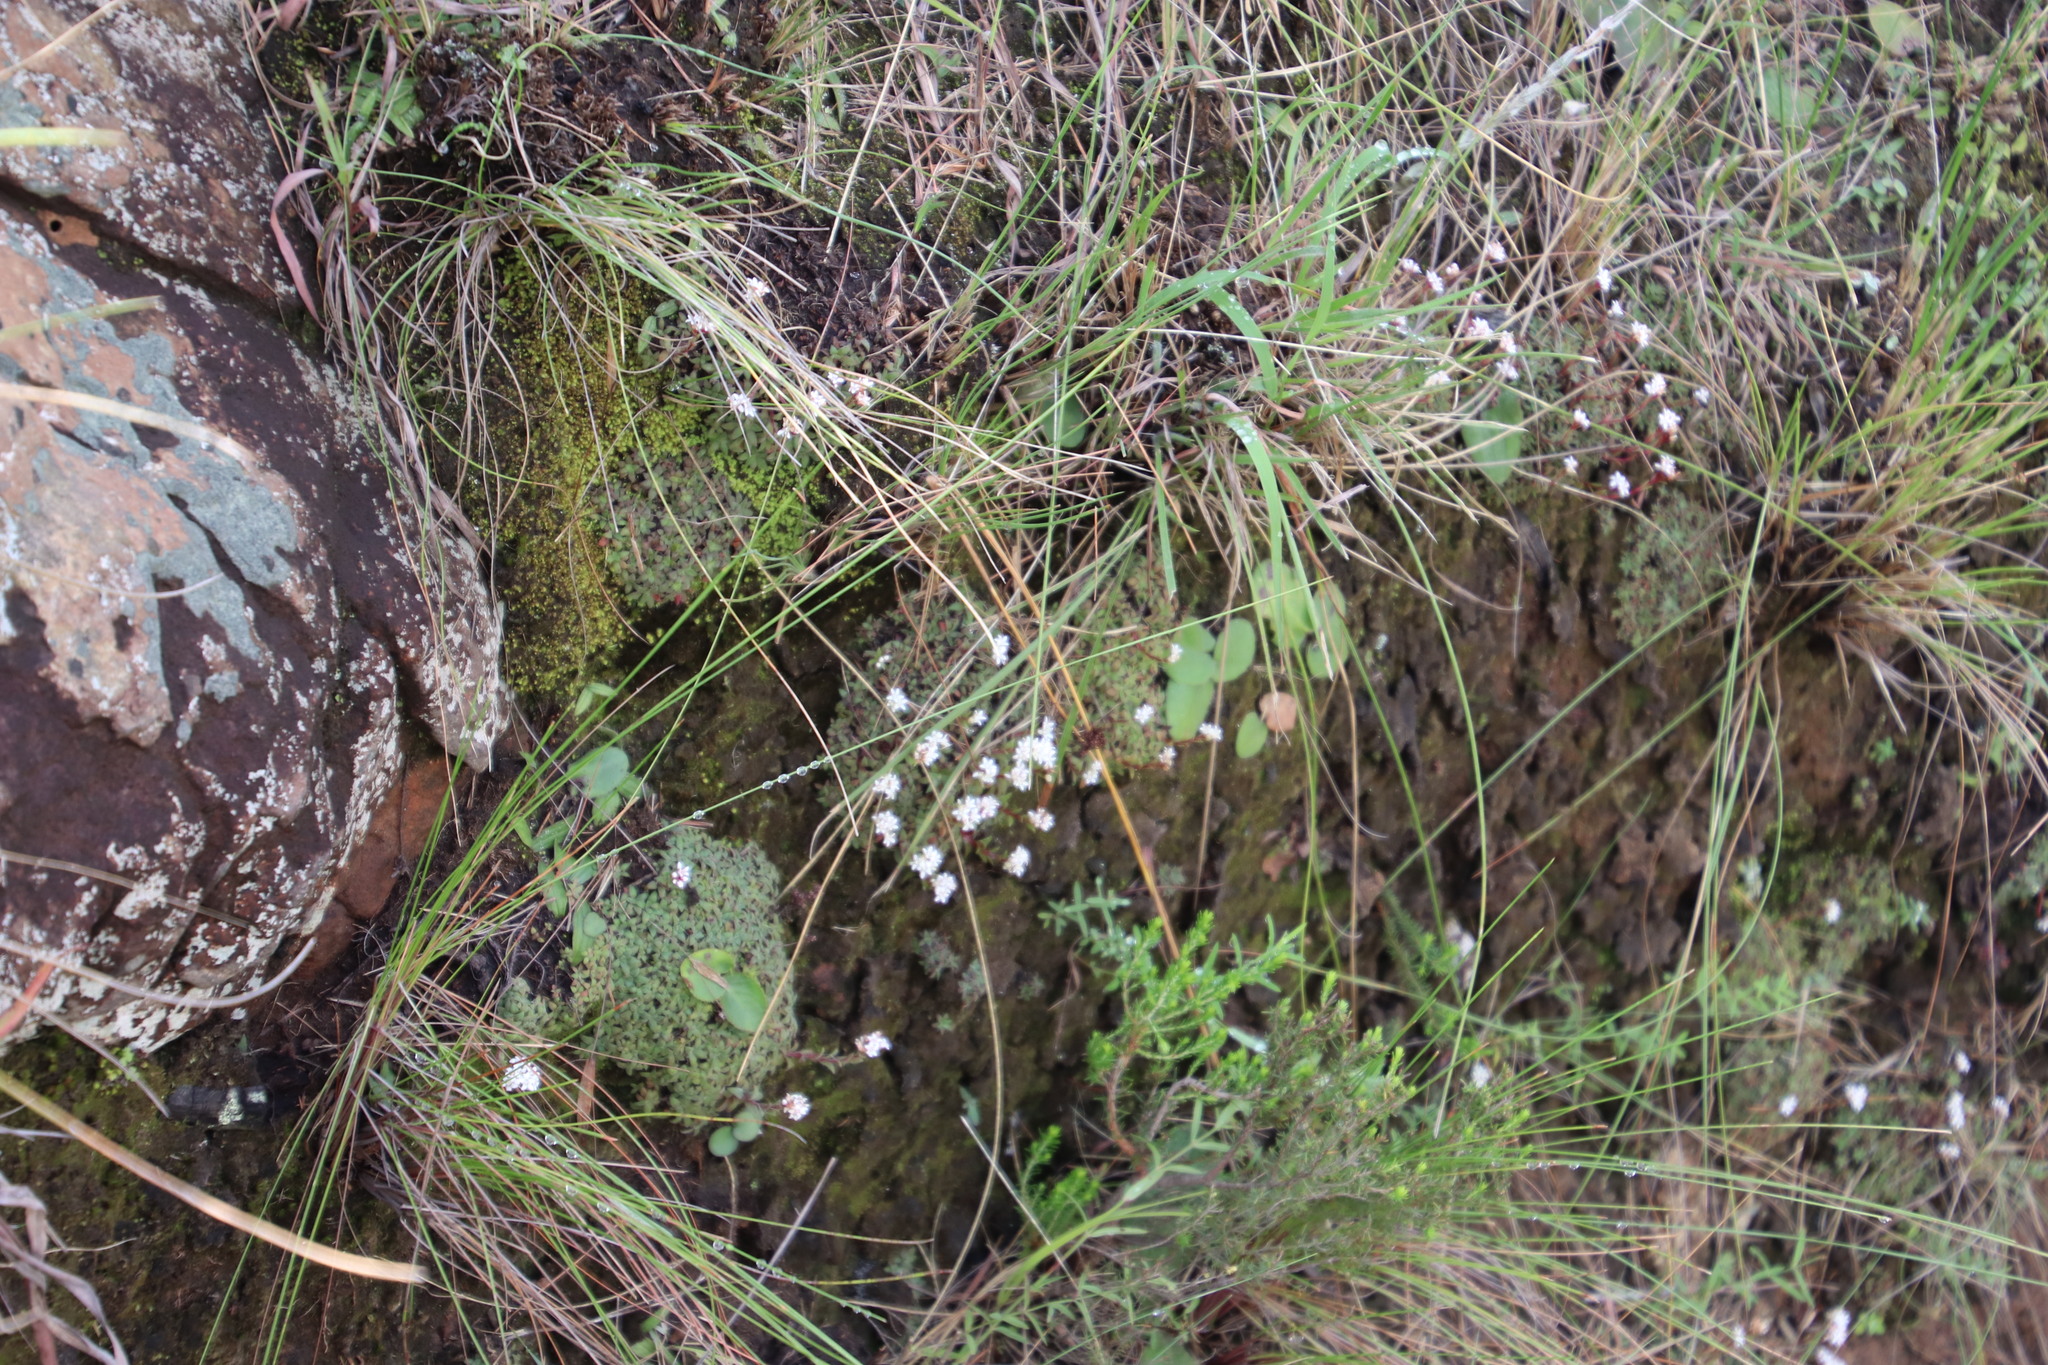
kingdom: Plantae
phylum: Tracheophyta
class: Magnoliopsida
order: Saxifragales
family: Crassulaceae
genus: Crassula
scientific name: Crassula setulosa
